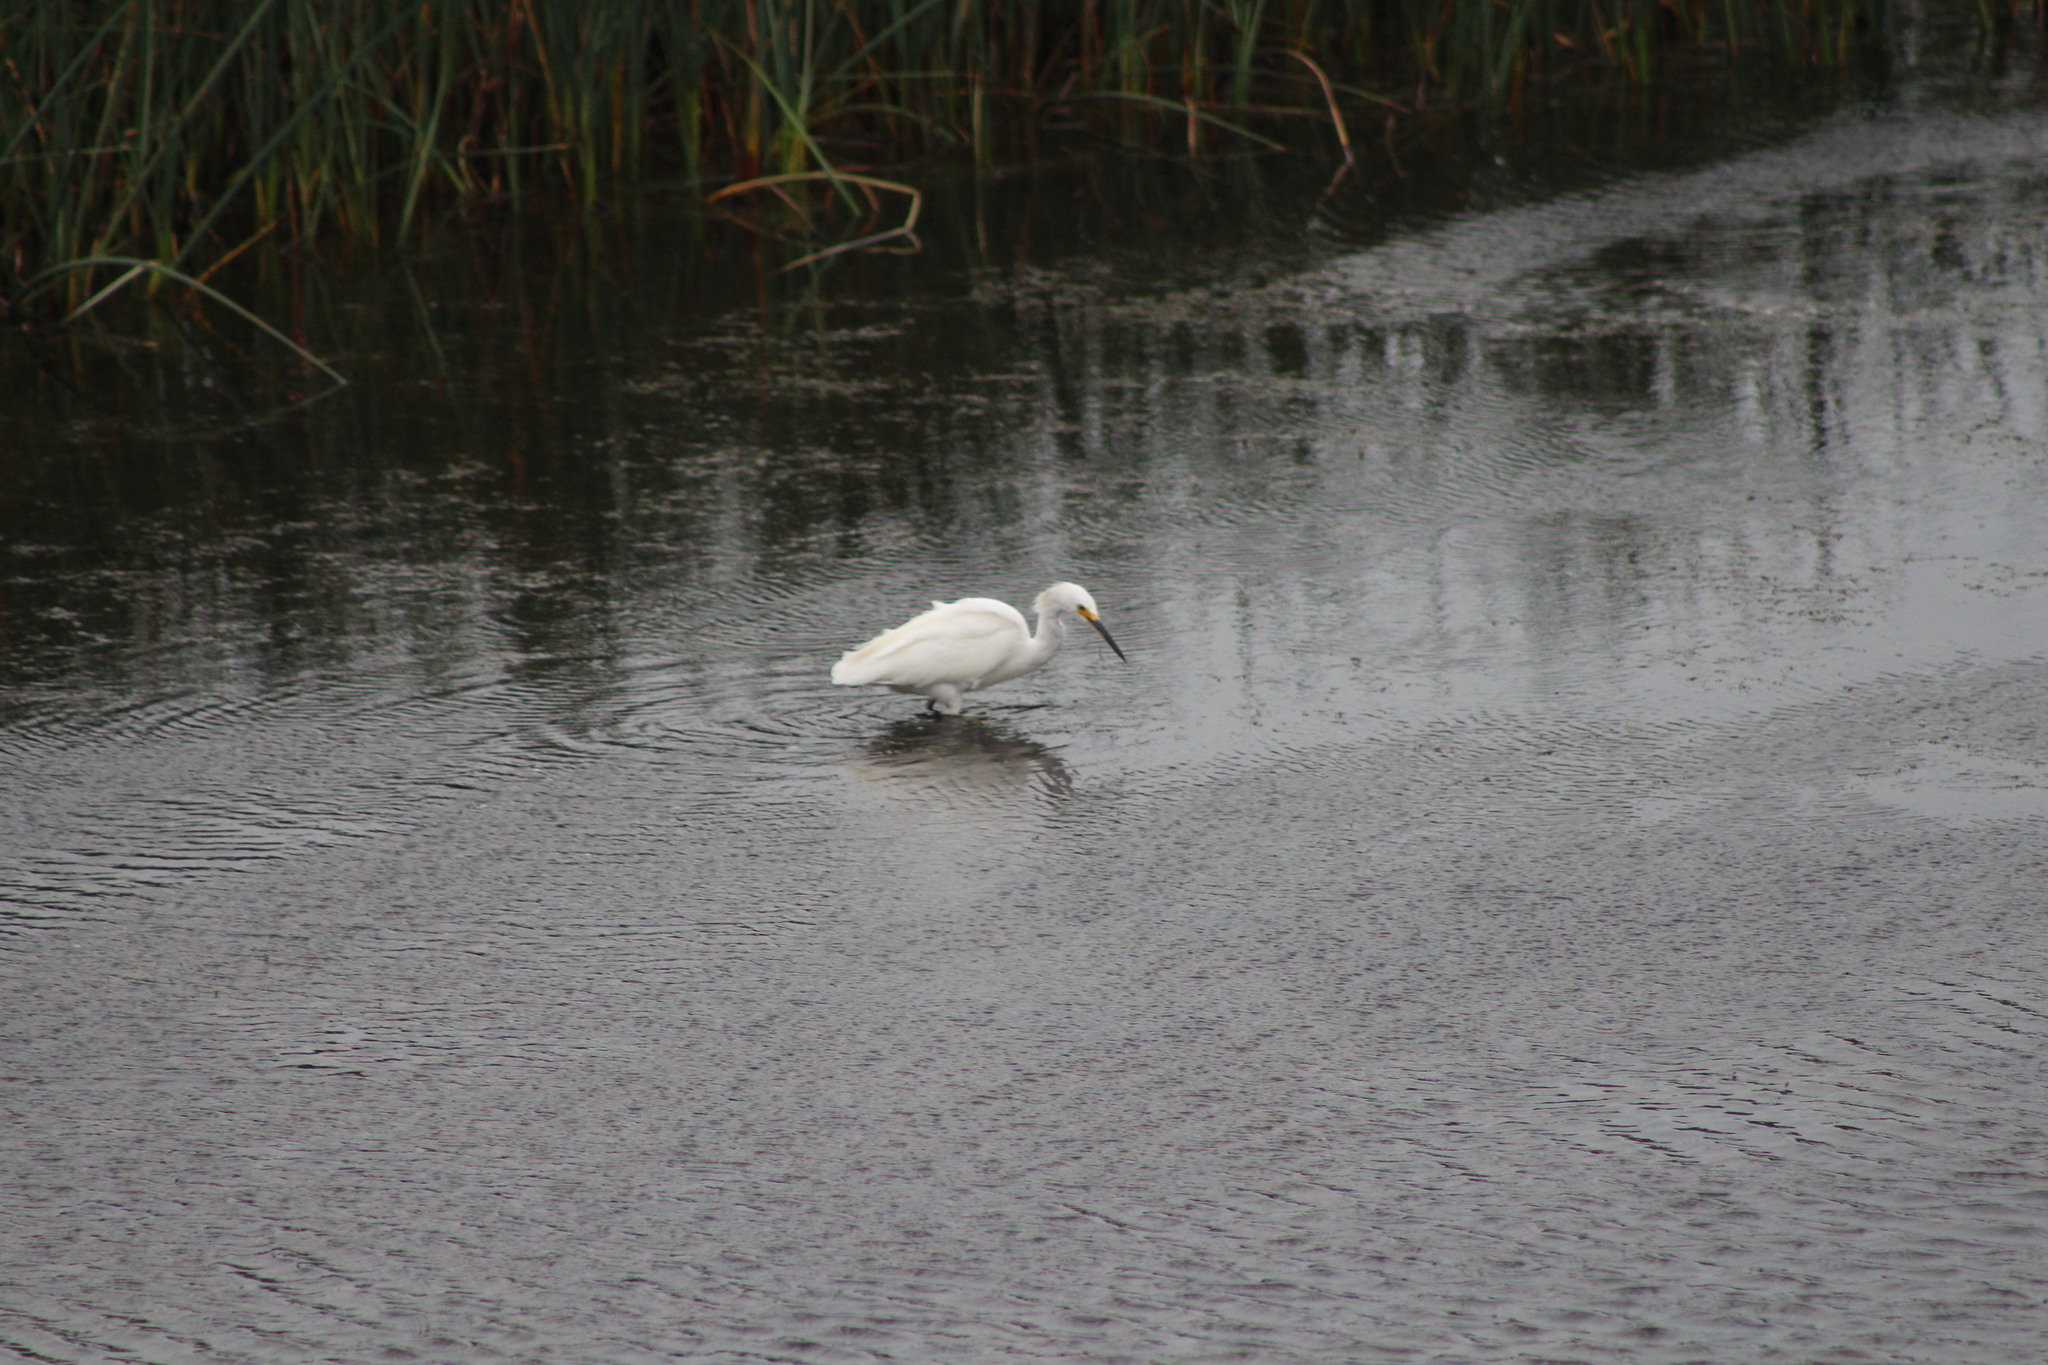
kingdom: Animalia
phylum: Chordata
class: Aves
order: Pelecaniformes
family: Ardeidae
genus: Egretta
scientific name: Egretta thula
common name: Snowy egret
